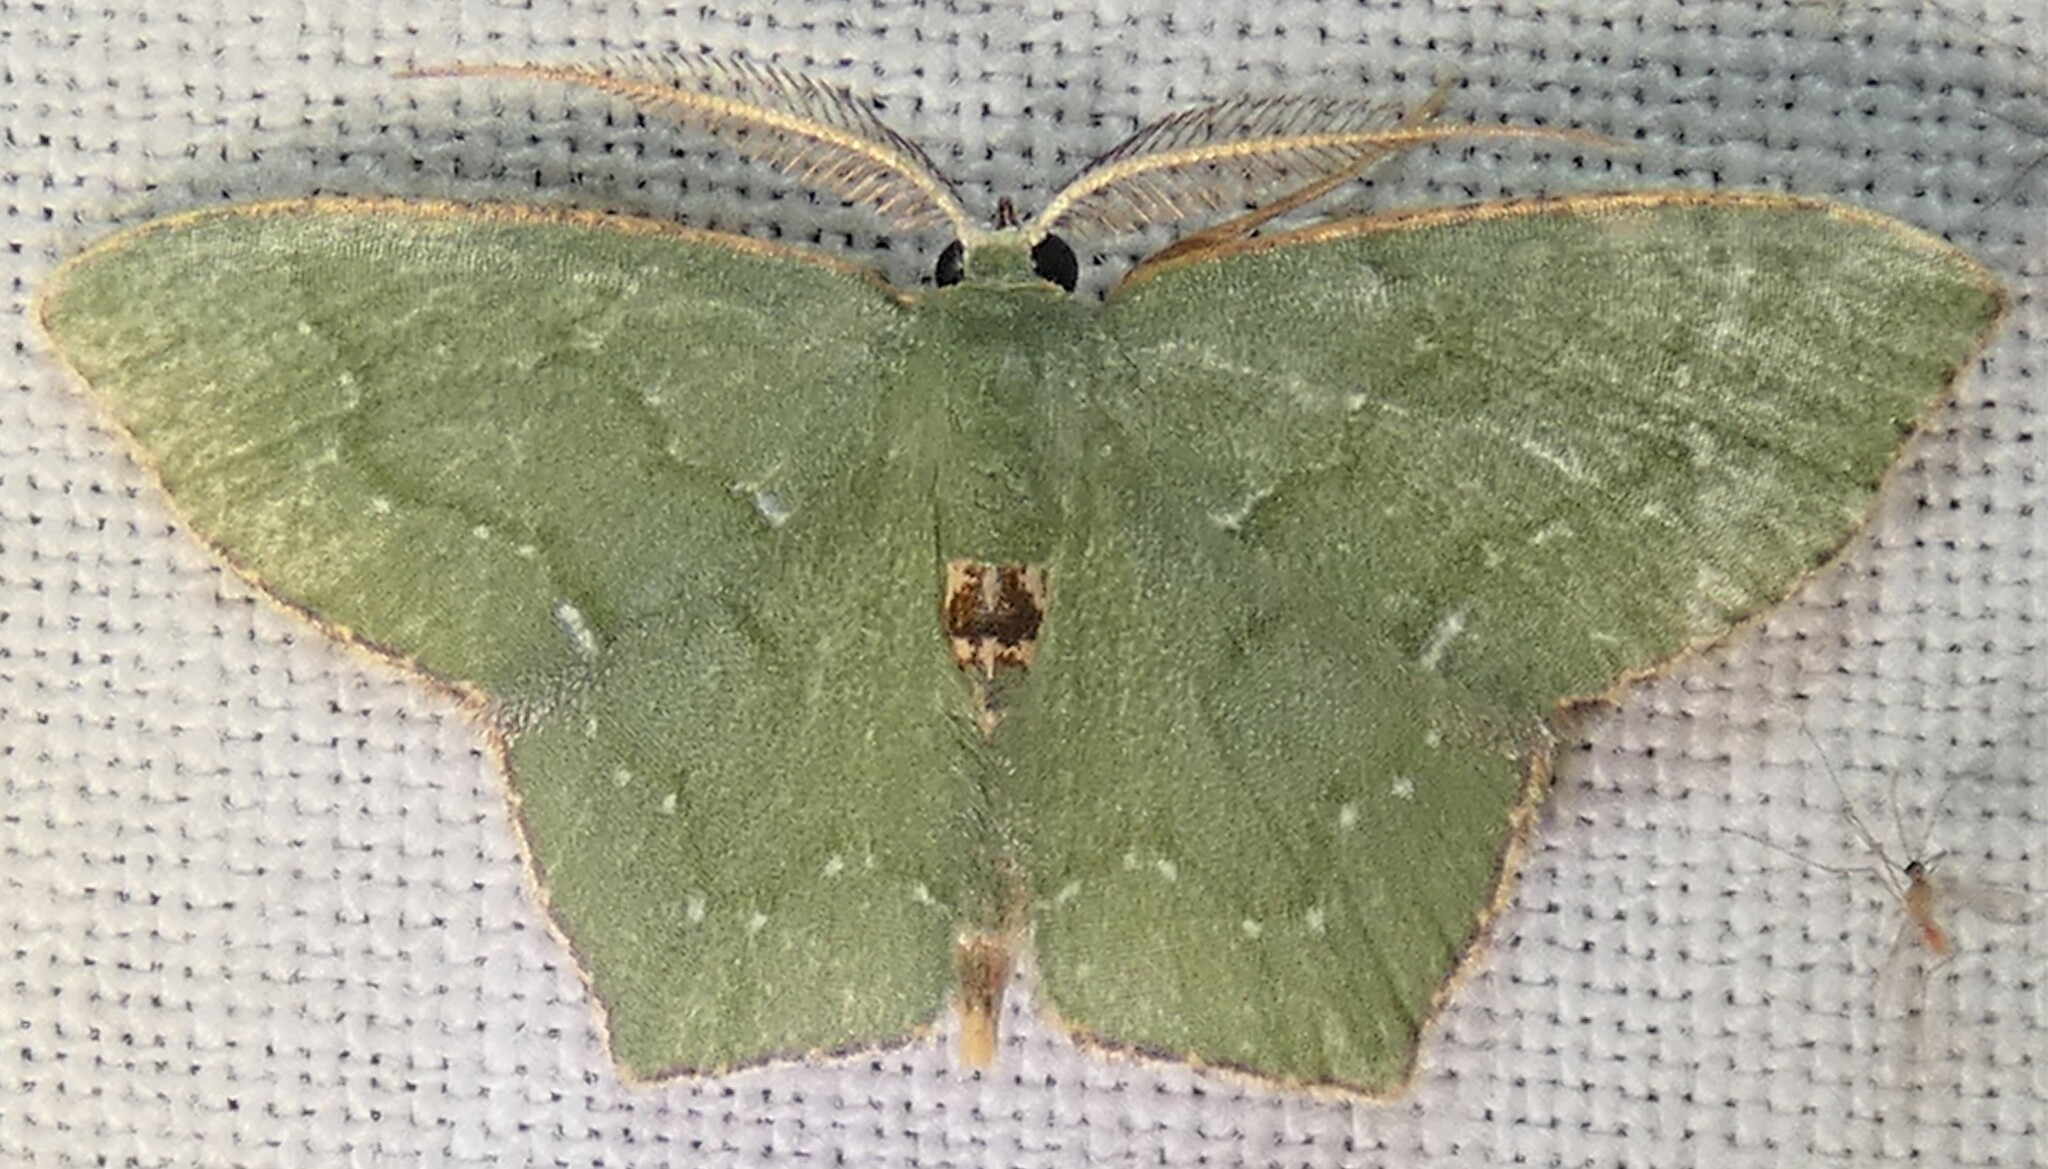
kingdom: Animalia
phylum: Arthropoda
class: Insecta
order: Lepidoptera
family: Geometridae
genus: Chloropteryx
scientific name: Chloropteryx tepperaria
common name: Angle winged emerald moth
